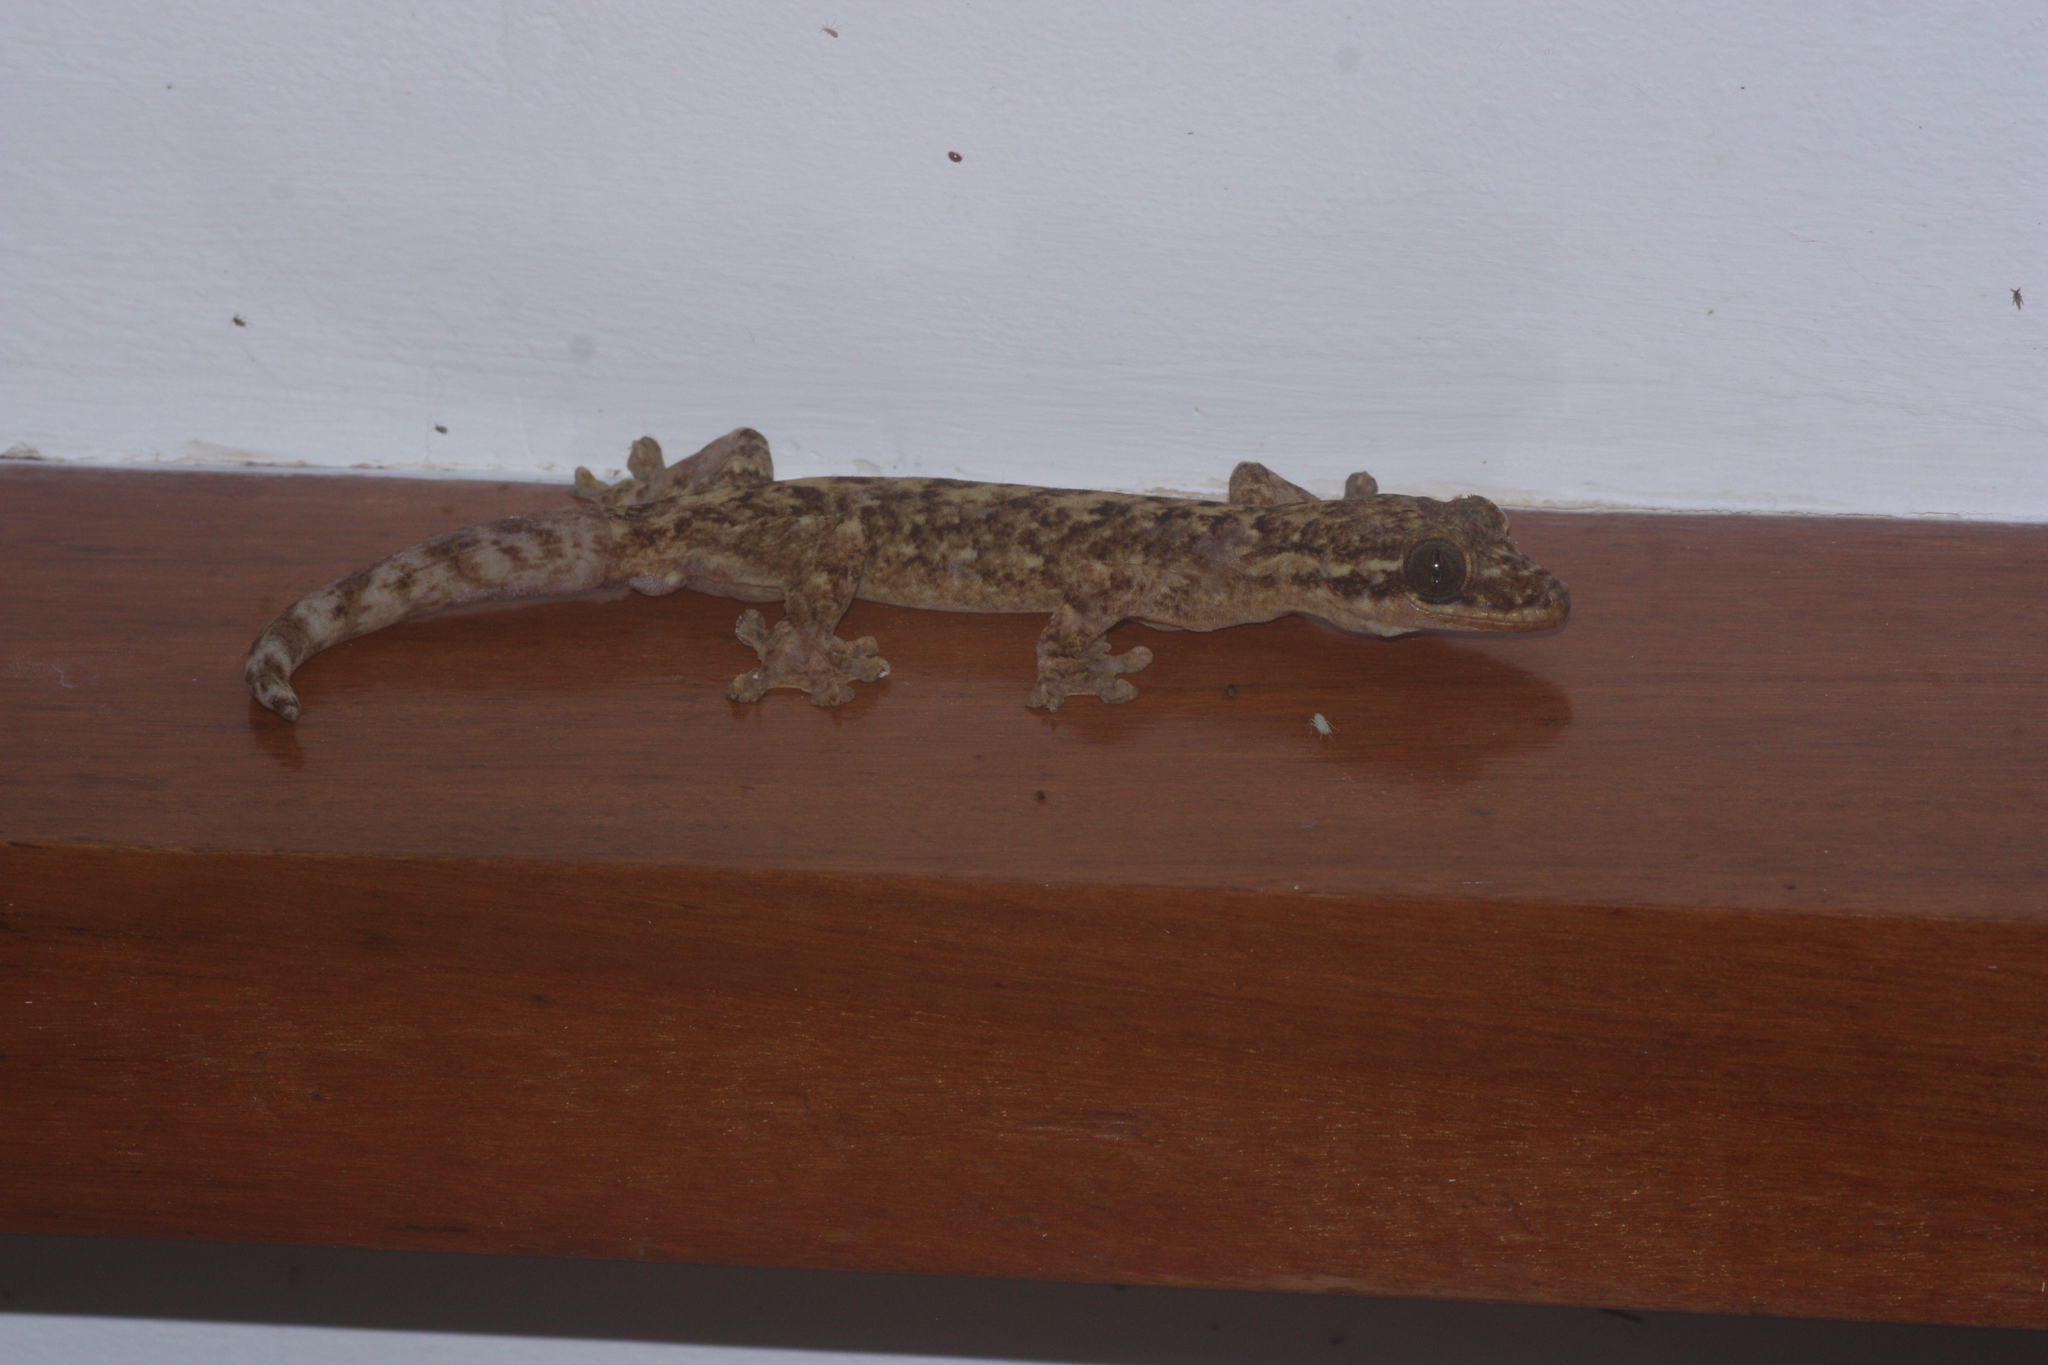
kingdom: Animalia
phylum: Chordata
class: Squamata
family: Phyllodactylidae
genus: Thecadactylus
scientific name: Thecadactylus rapicauda
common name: Turnip-tailed gecko
